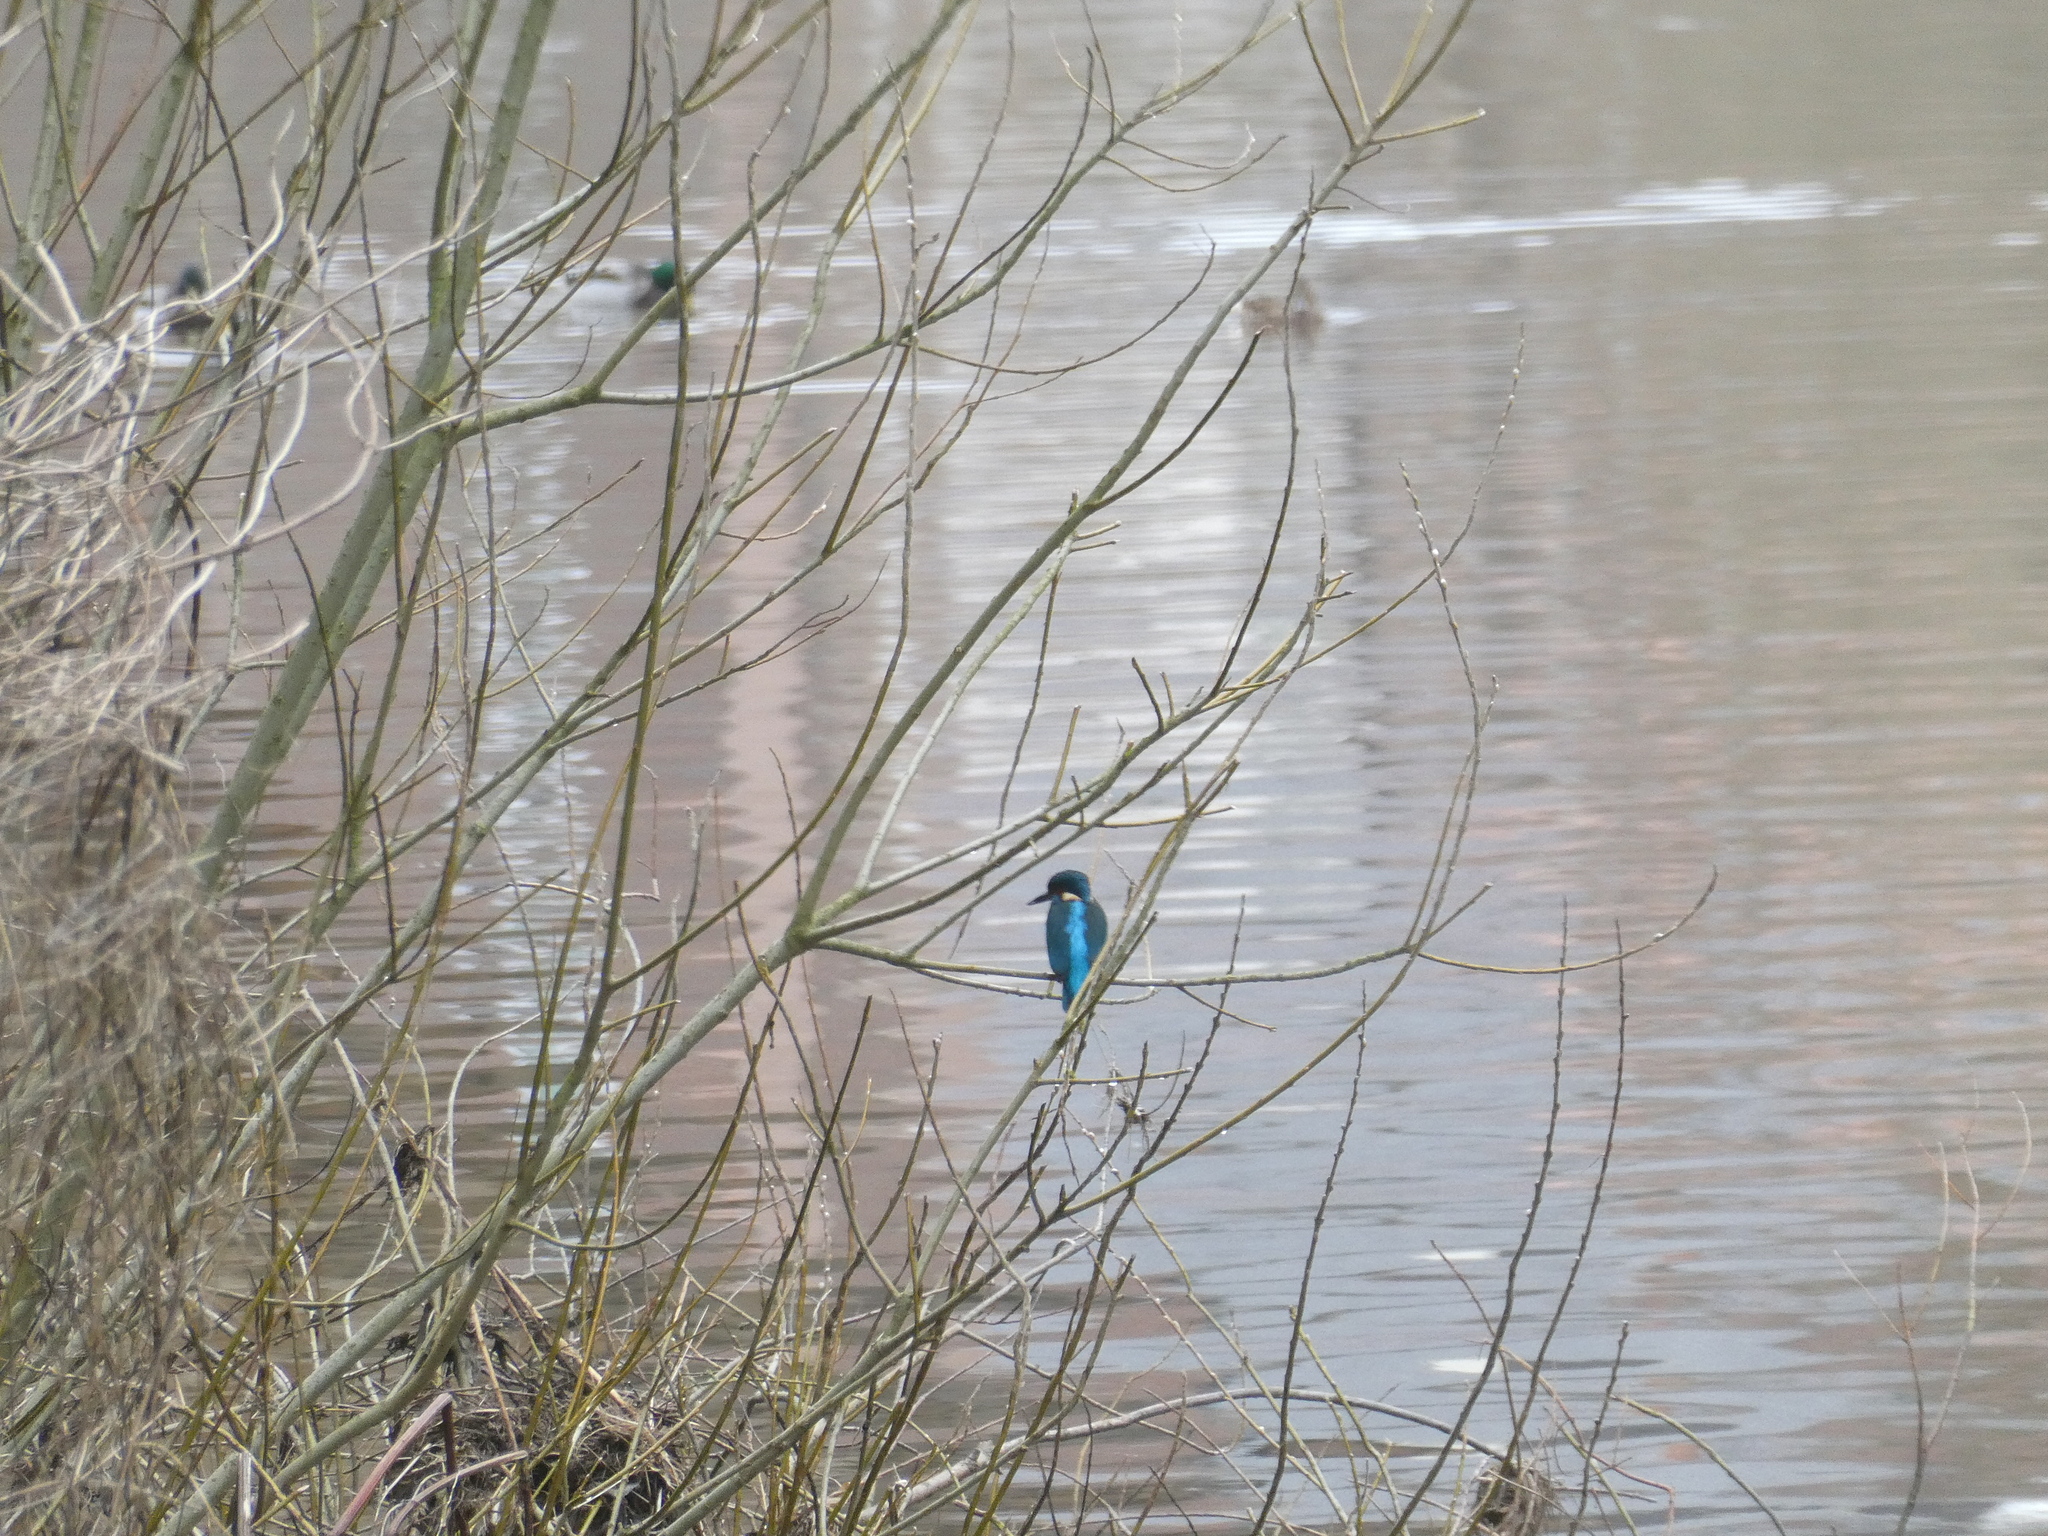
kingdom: Animalia
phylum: Chordata
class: Aves
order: Coraciiformes
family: Alcedinidae
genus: Alcedo
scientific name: Alcedo atthis
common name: Common kingfisher
